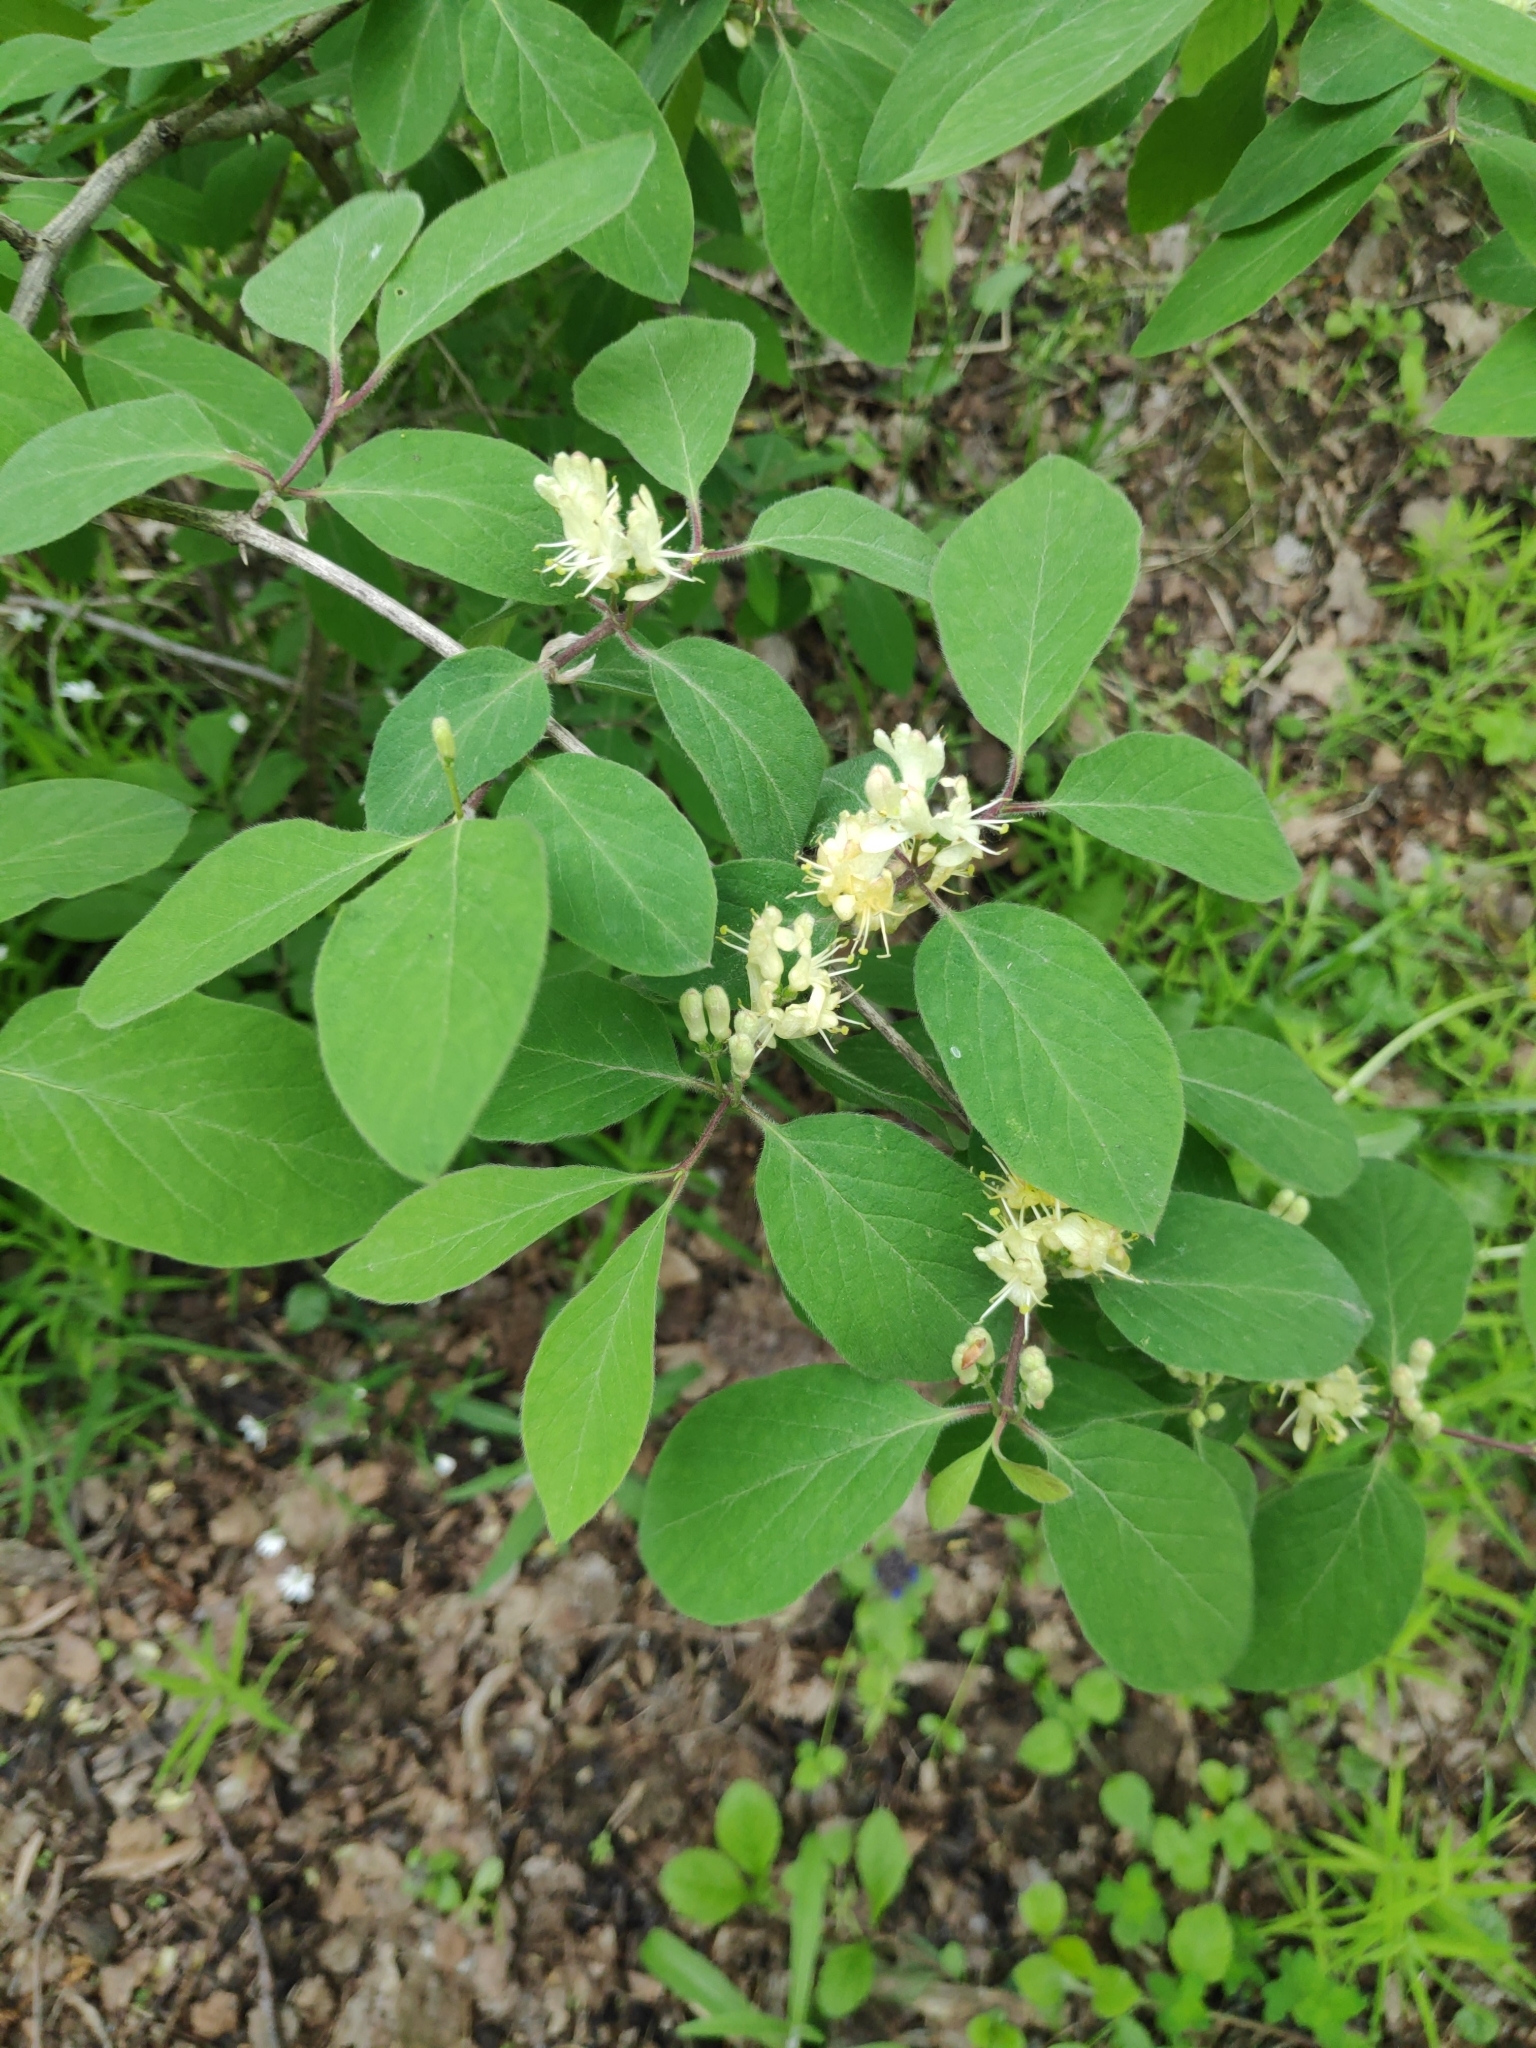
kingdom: Plantae
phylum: Tracheophyta
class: Magnoliopsida
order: Dipsacales
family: Caprifoliaceae
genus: Lonicera
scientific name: Lonicera xylosteum
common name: Fly honeysuckle
